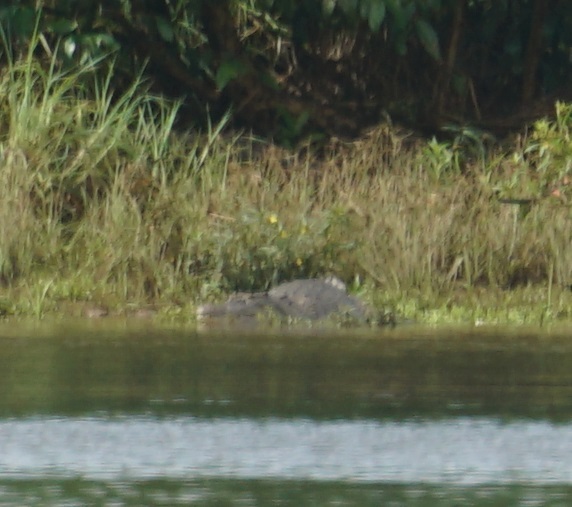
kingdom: Animalia
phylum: Chordata
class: Crocodylia
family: Crocodylidae
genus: Crocodylus
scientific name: Crocodylus porosus
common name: Saltwater crocodile
